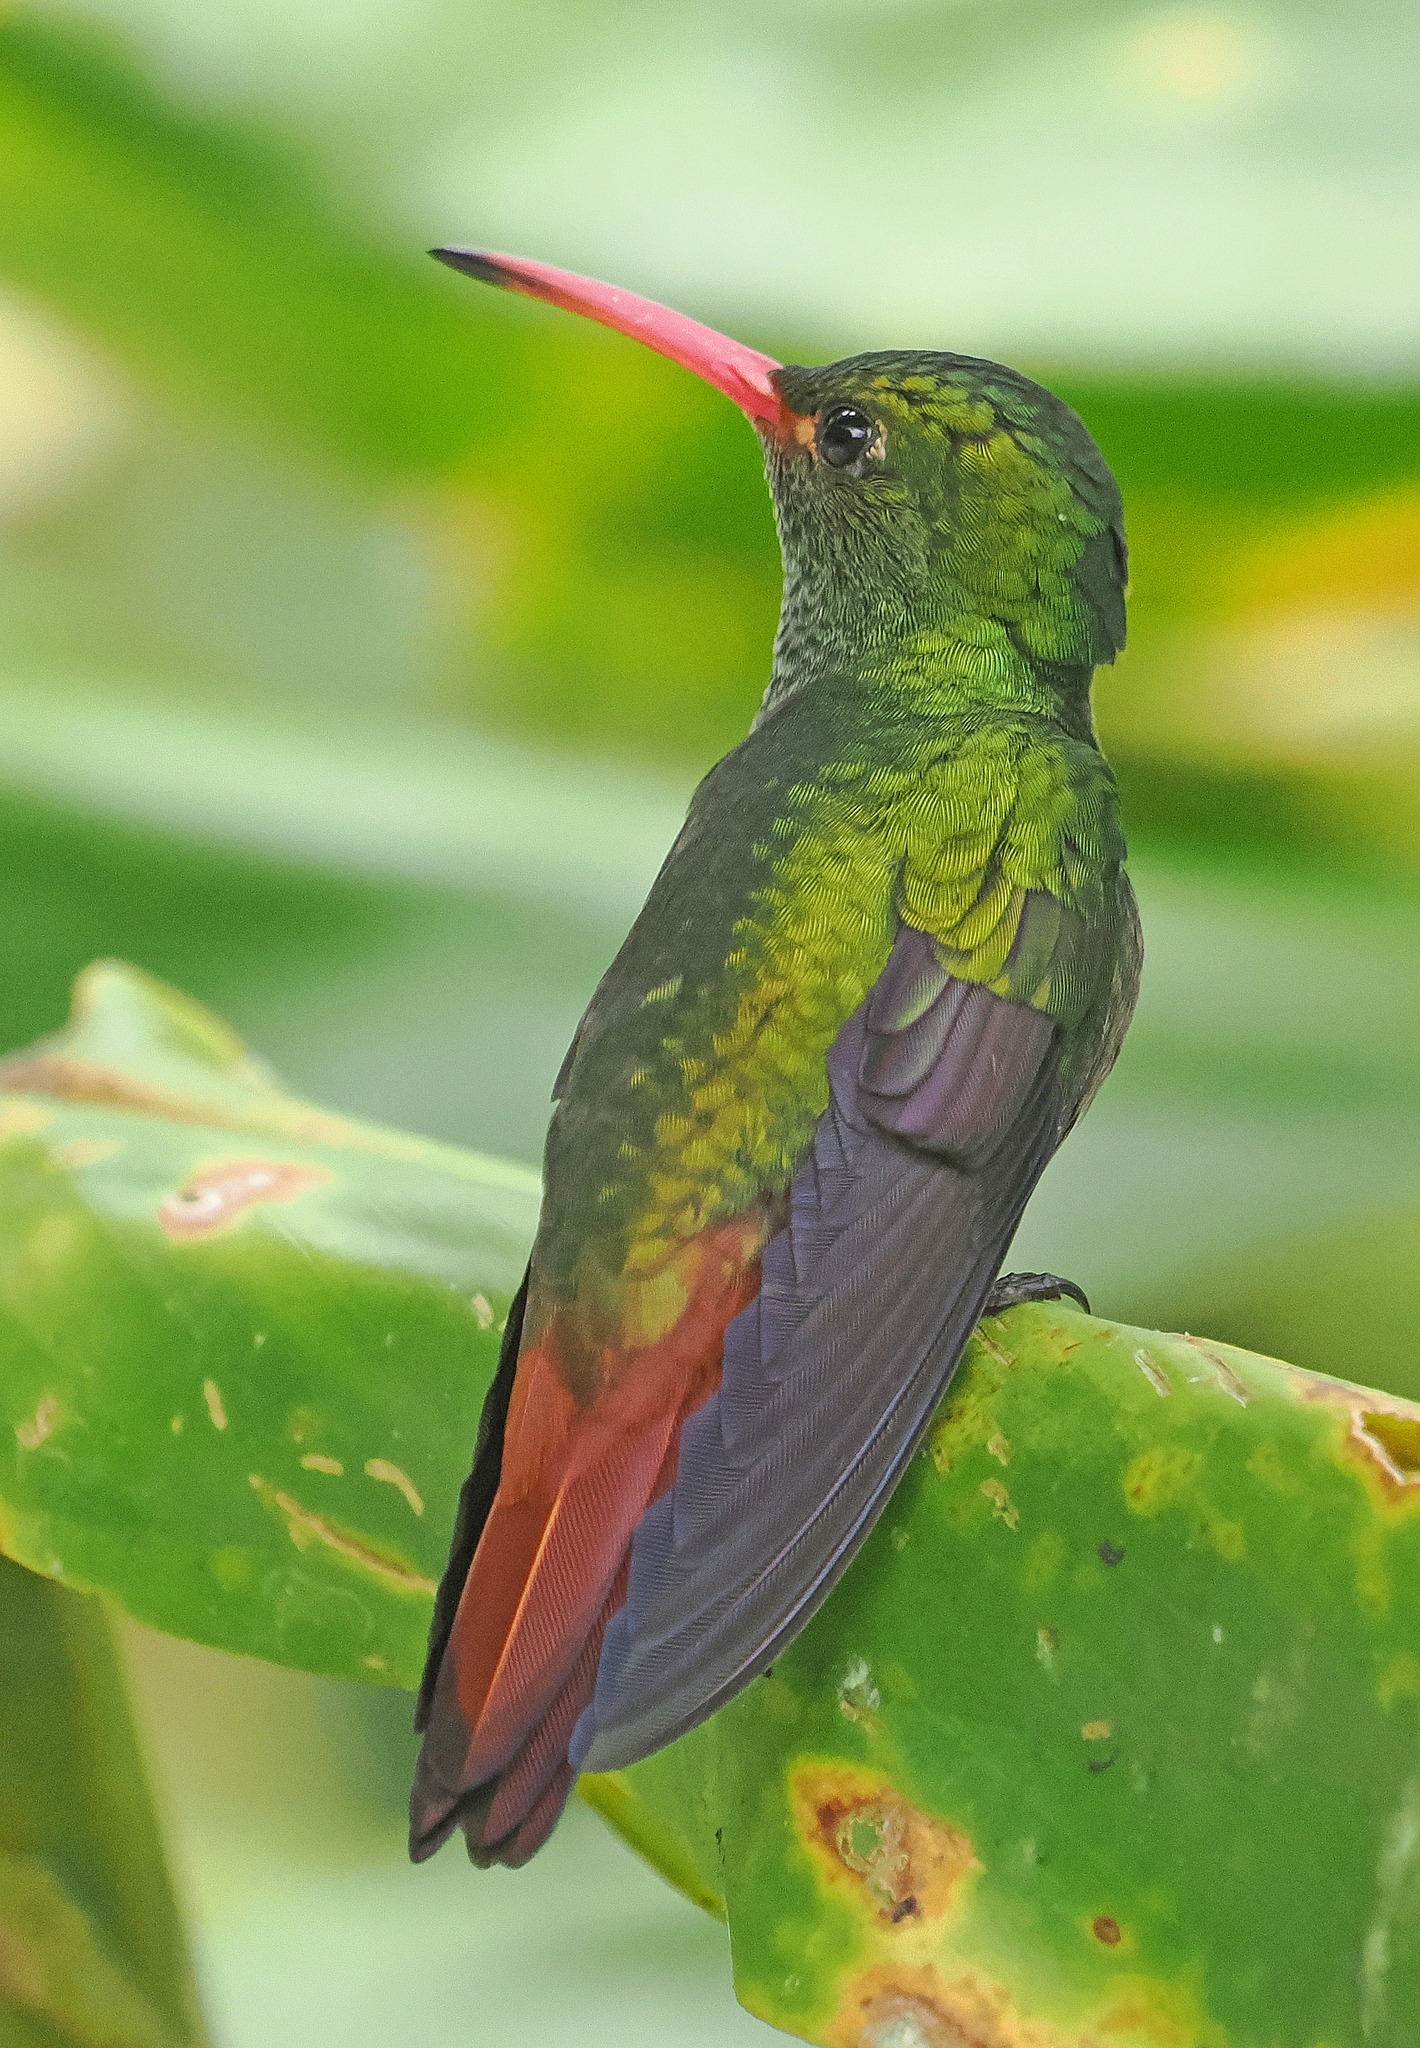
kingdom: Animalia
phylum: Chordata
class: Aves
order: Apodiformes
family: Trochilidae
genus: Amazilia
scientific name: Amazilia tzacatl
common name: Rufous-tailed hummingbird
